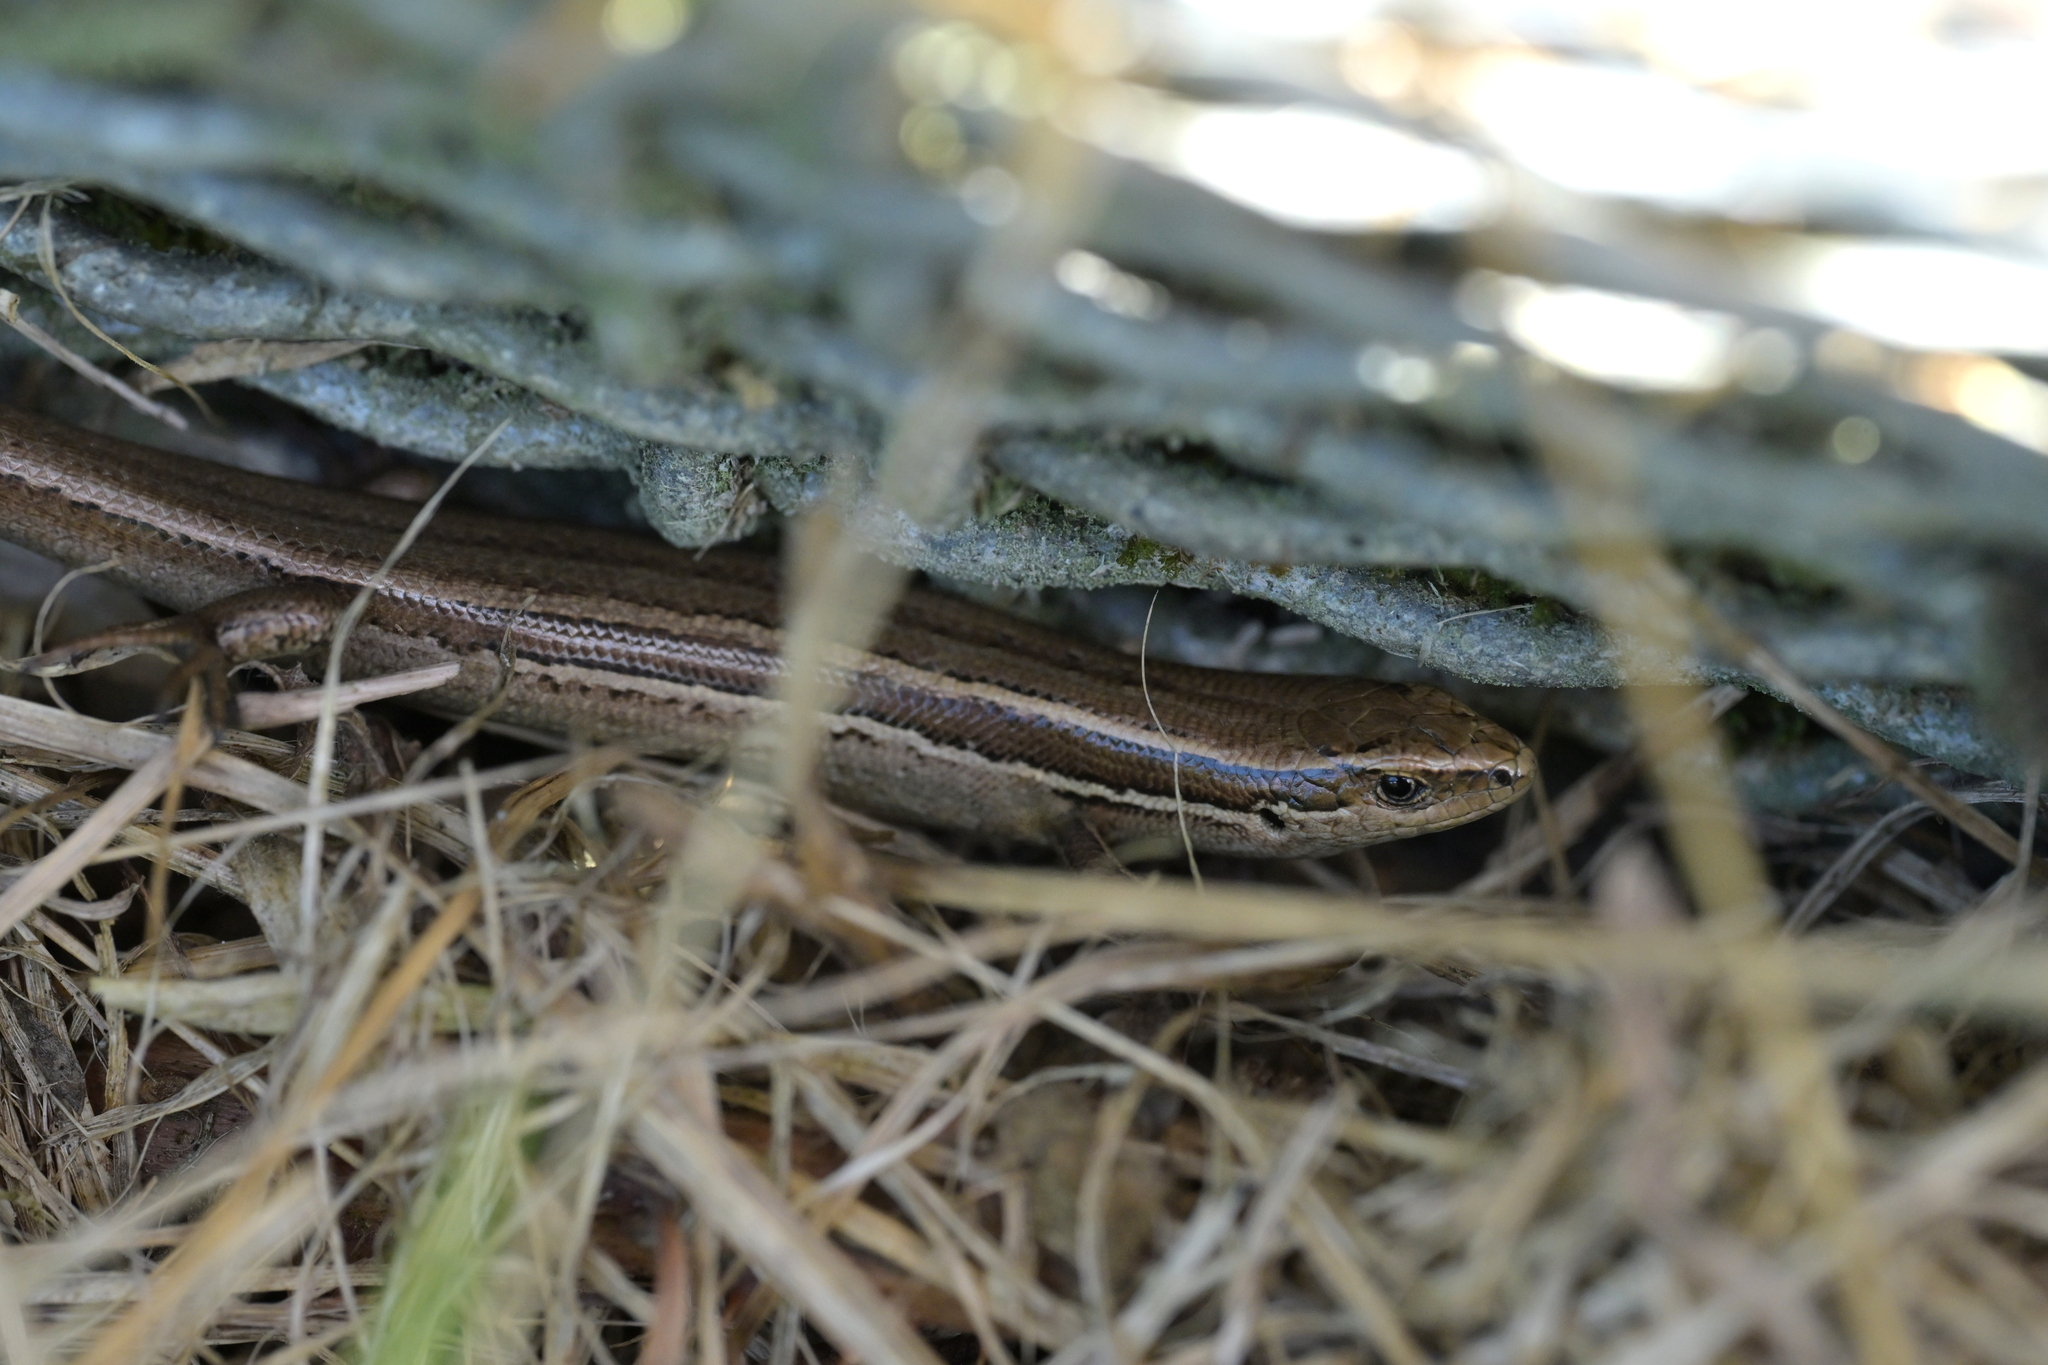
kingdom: Animalia
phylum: Chordata
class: Squamata
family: Scincidae
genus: Oligosoma
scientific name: Oligosoma polychroma
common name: Common new zealand skink
